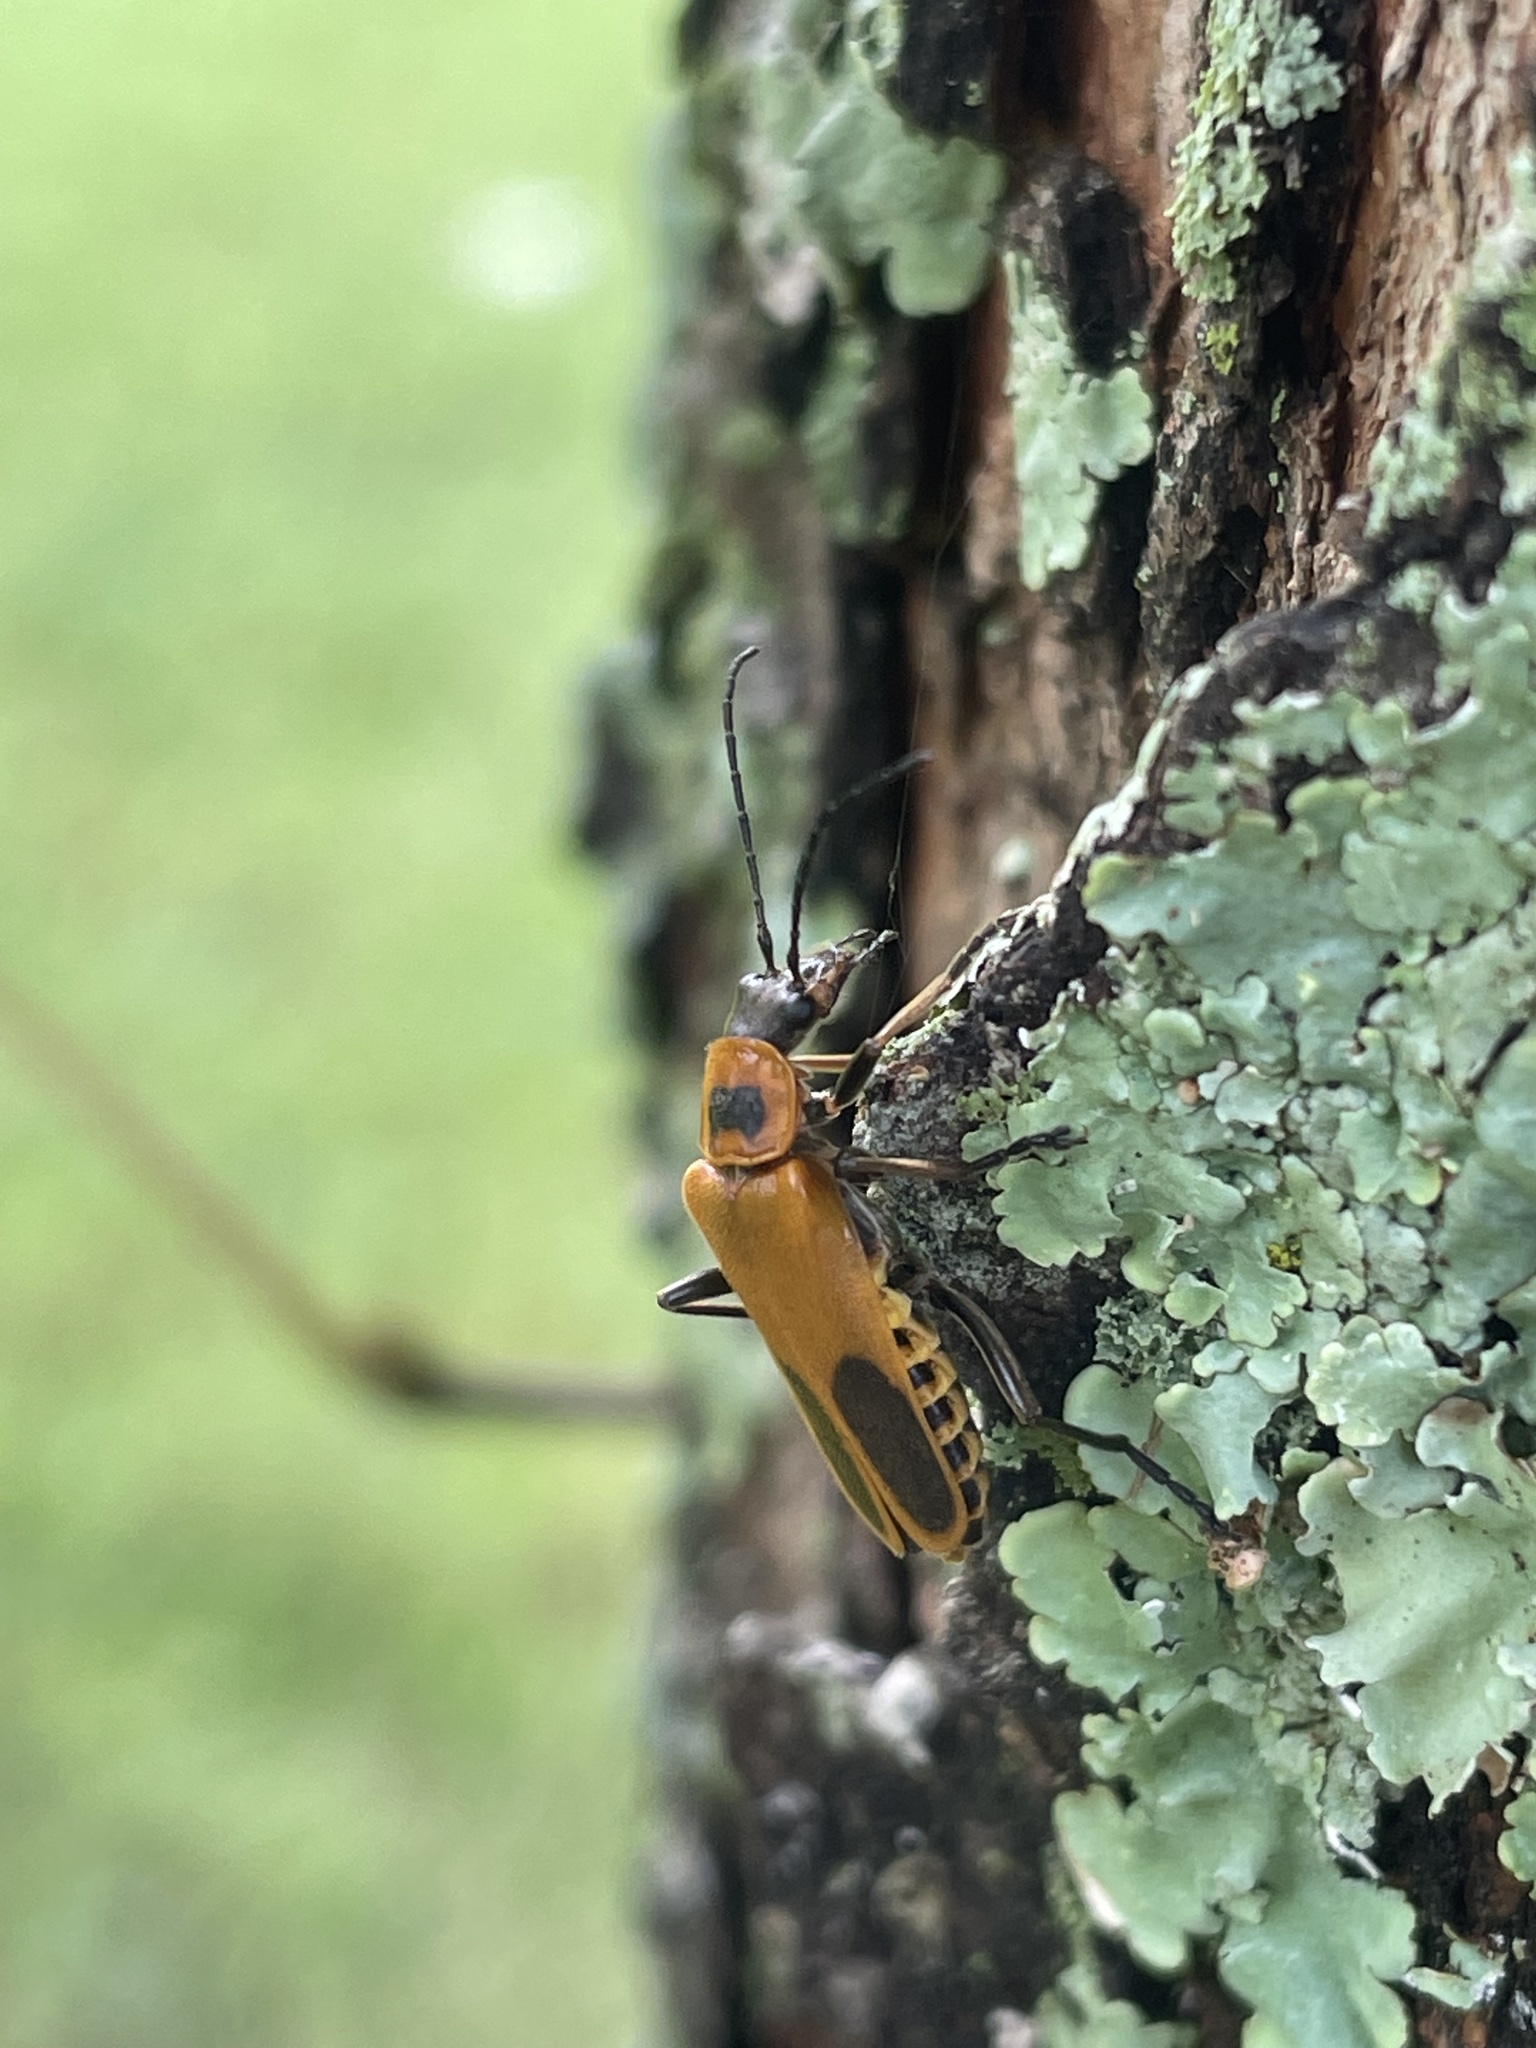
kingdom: Animalia
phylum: Arthropoda
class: Insecta
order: Coleoptera
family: Cantharidae
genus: Chauliognathus
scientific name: Chauliognathus pensylvanicus
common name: Goldenrod soldier beetle
